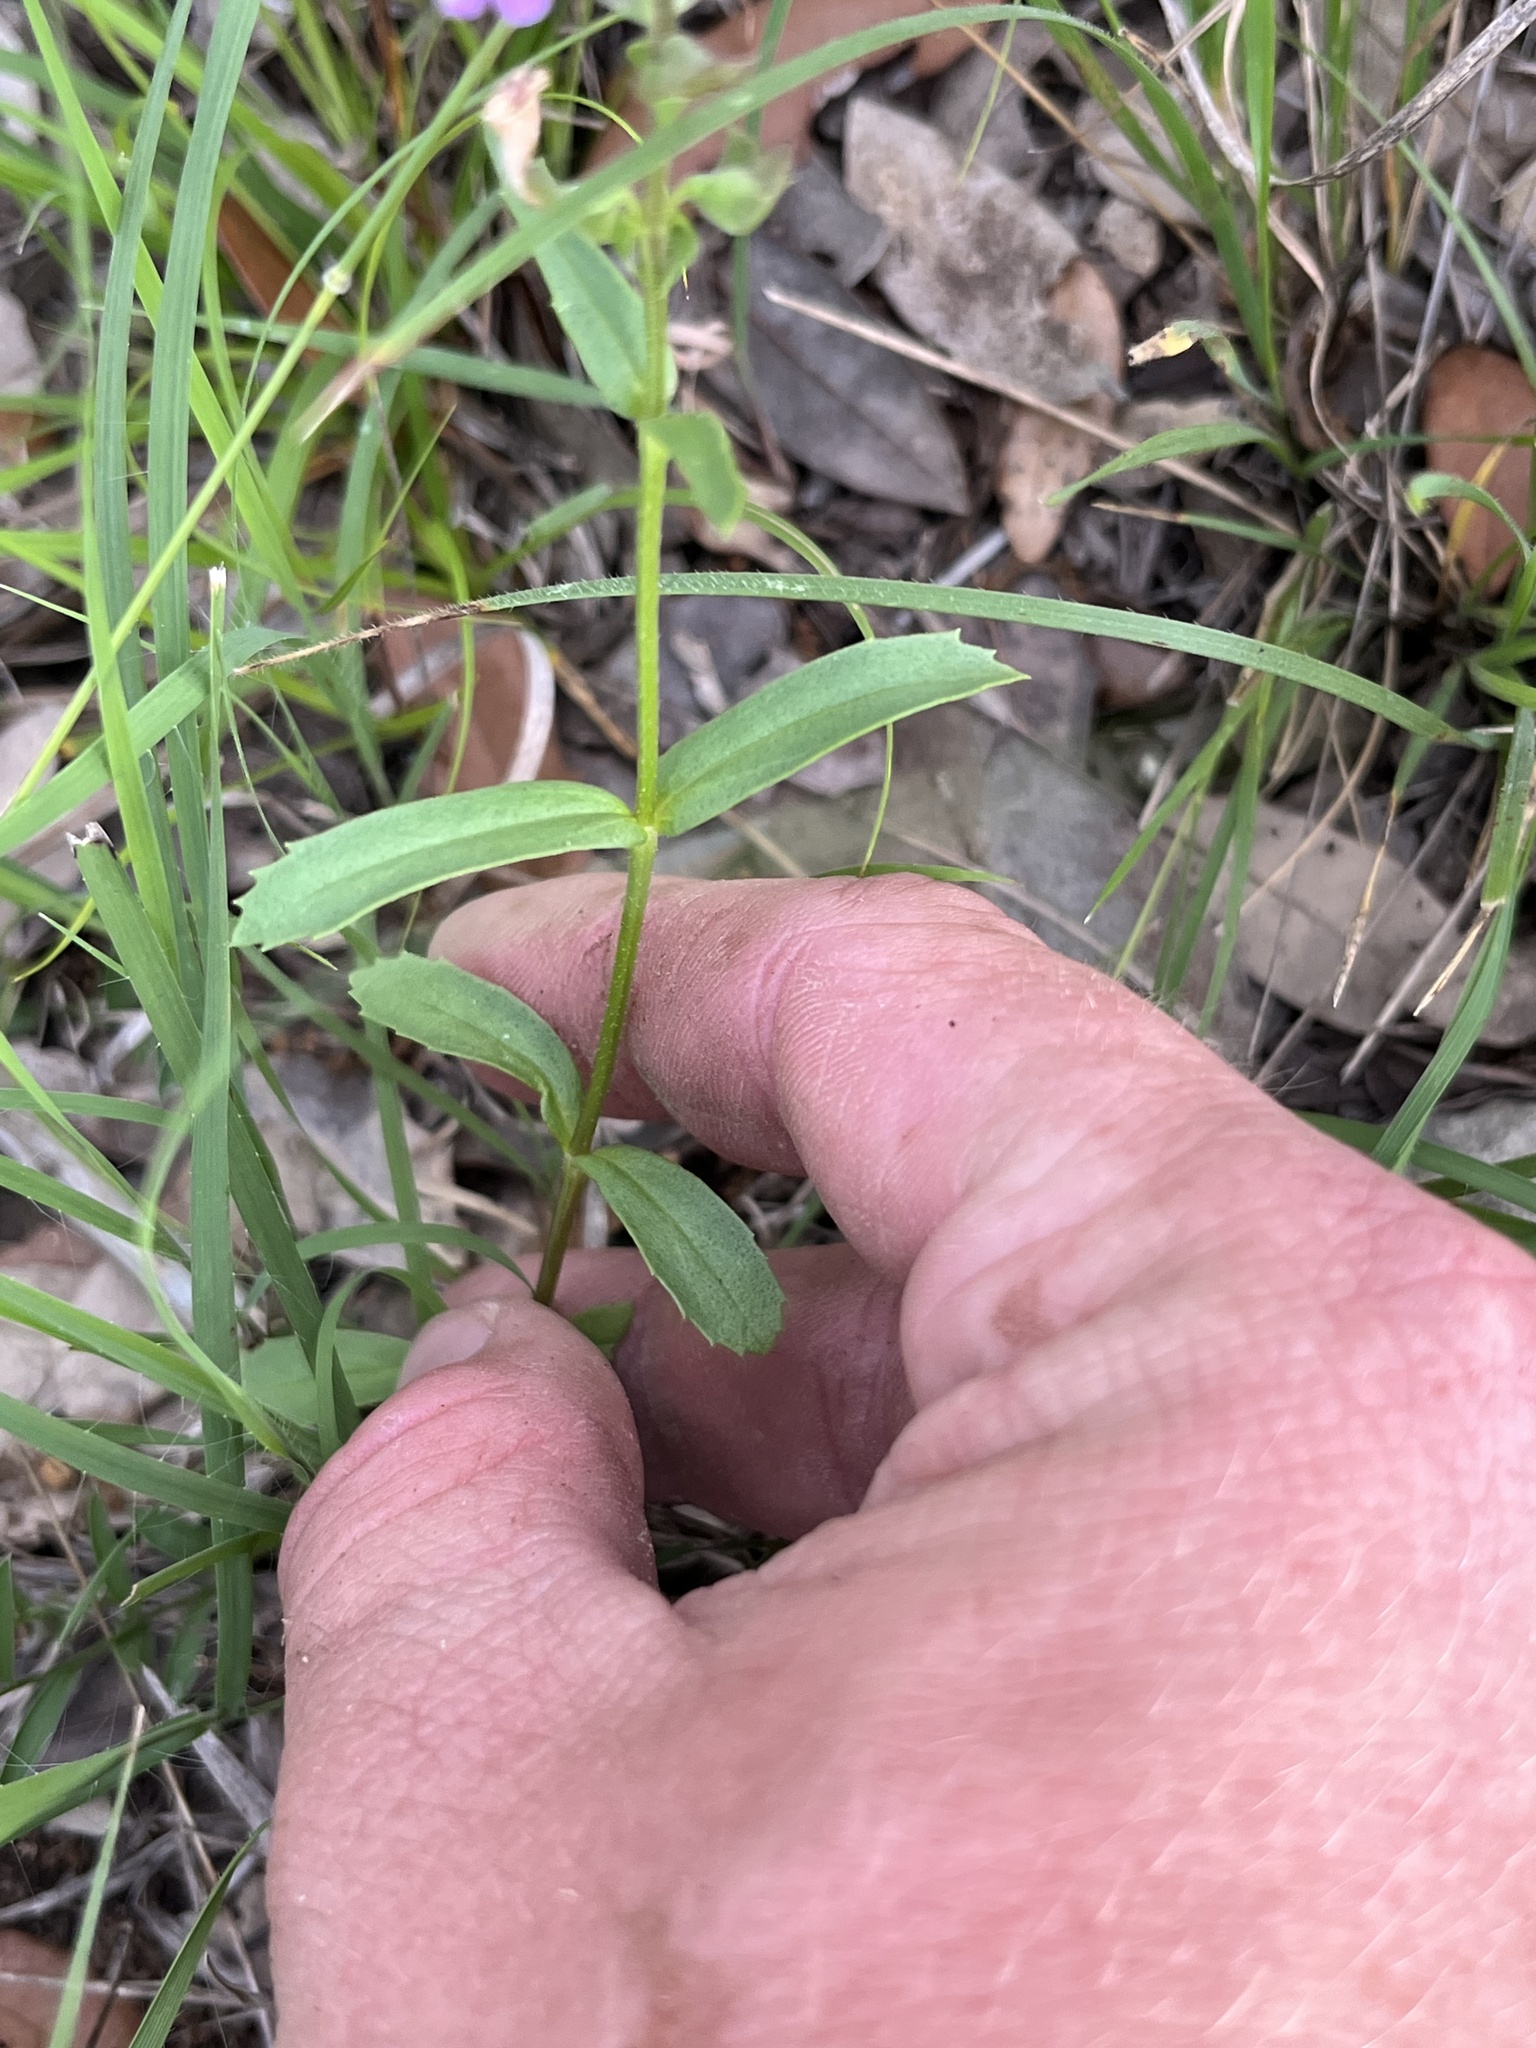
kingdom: Plantae
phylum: Tracheophyta
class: Magnoliopsida
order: Lamiales
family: Lamiaceae
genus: Warnockia
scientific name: Warnockia scutellarioides
